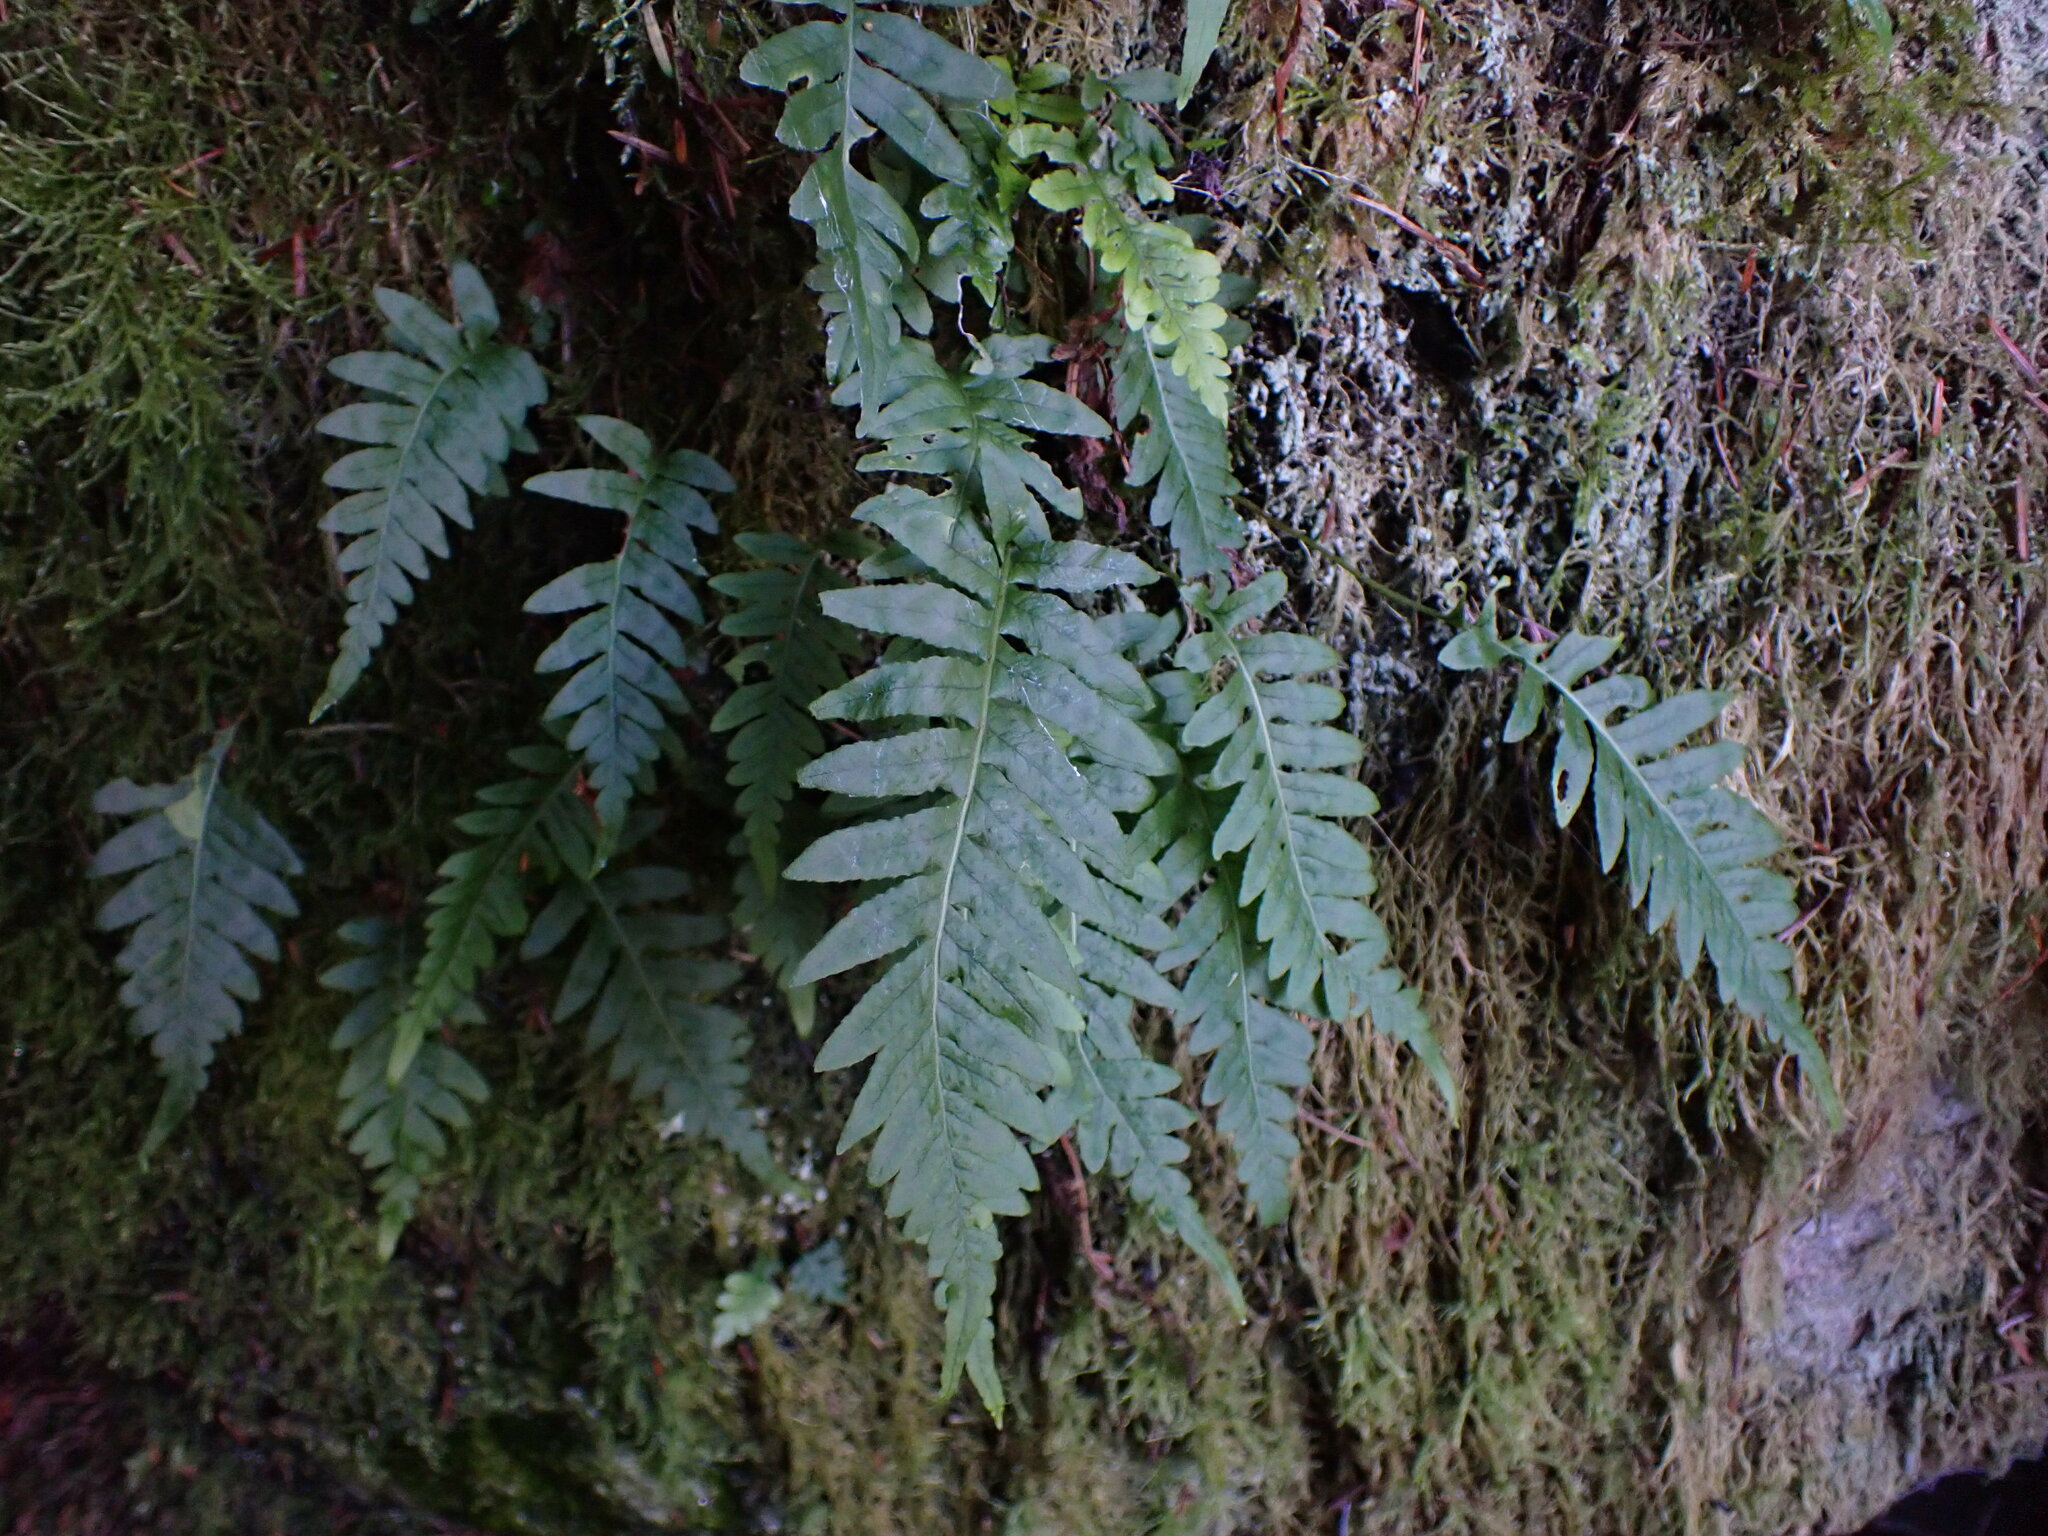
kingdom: Plantae
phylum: Tracheophyta
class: Polypodiopsida
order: Polypodiales
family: Polypodiaceae
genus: Polypodium
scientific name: Polypodium glycyrrhiza
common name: Licorice fern
